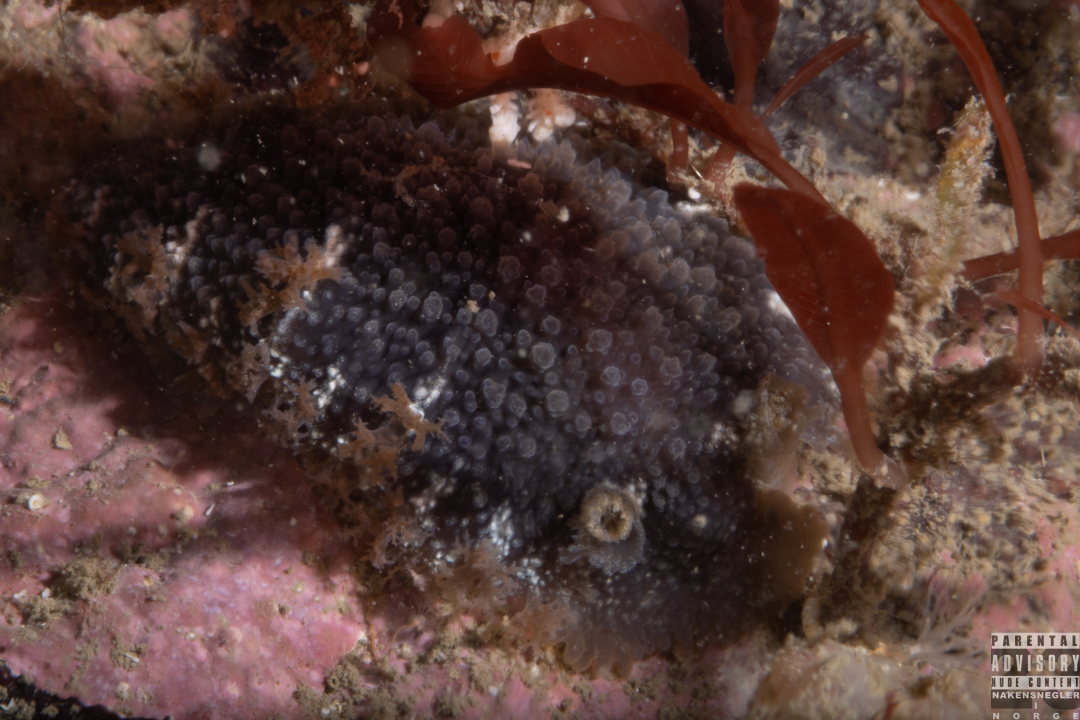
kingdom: Animalia
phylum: Mollusca
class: Gastropoda
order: Nudibranchia
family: Tritoniidae
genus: Tritonia
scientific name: Tritonia hombergii
